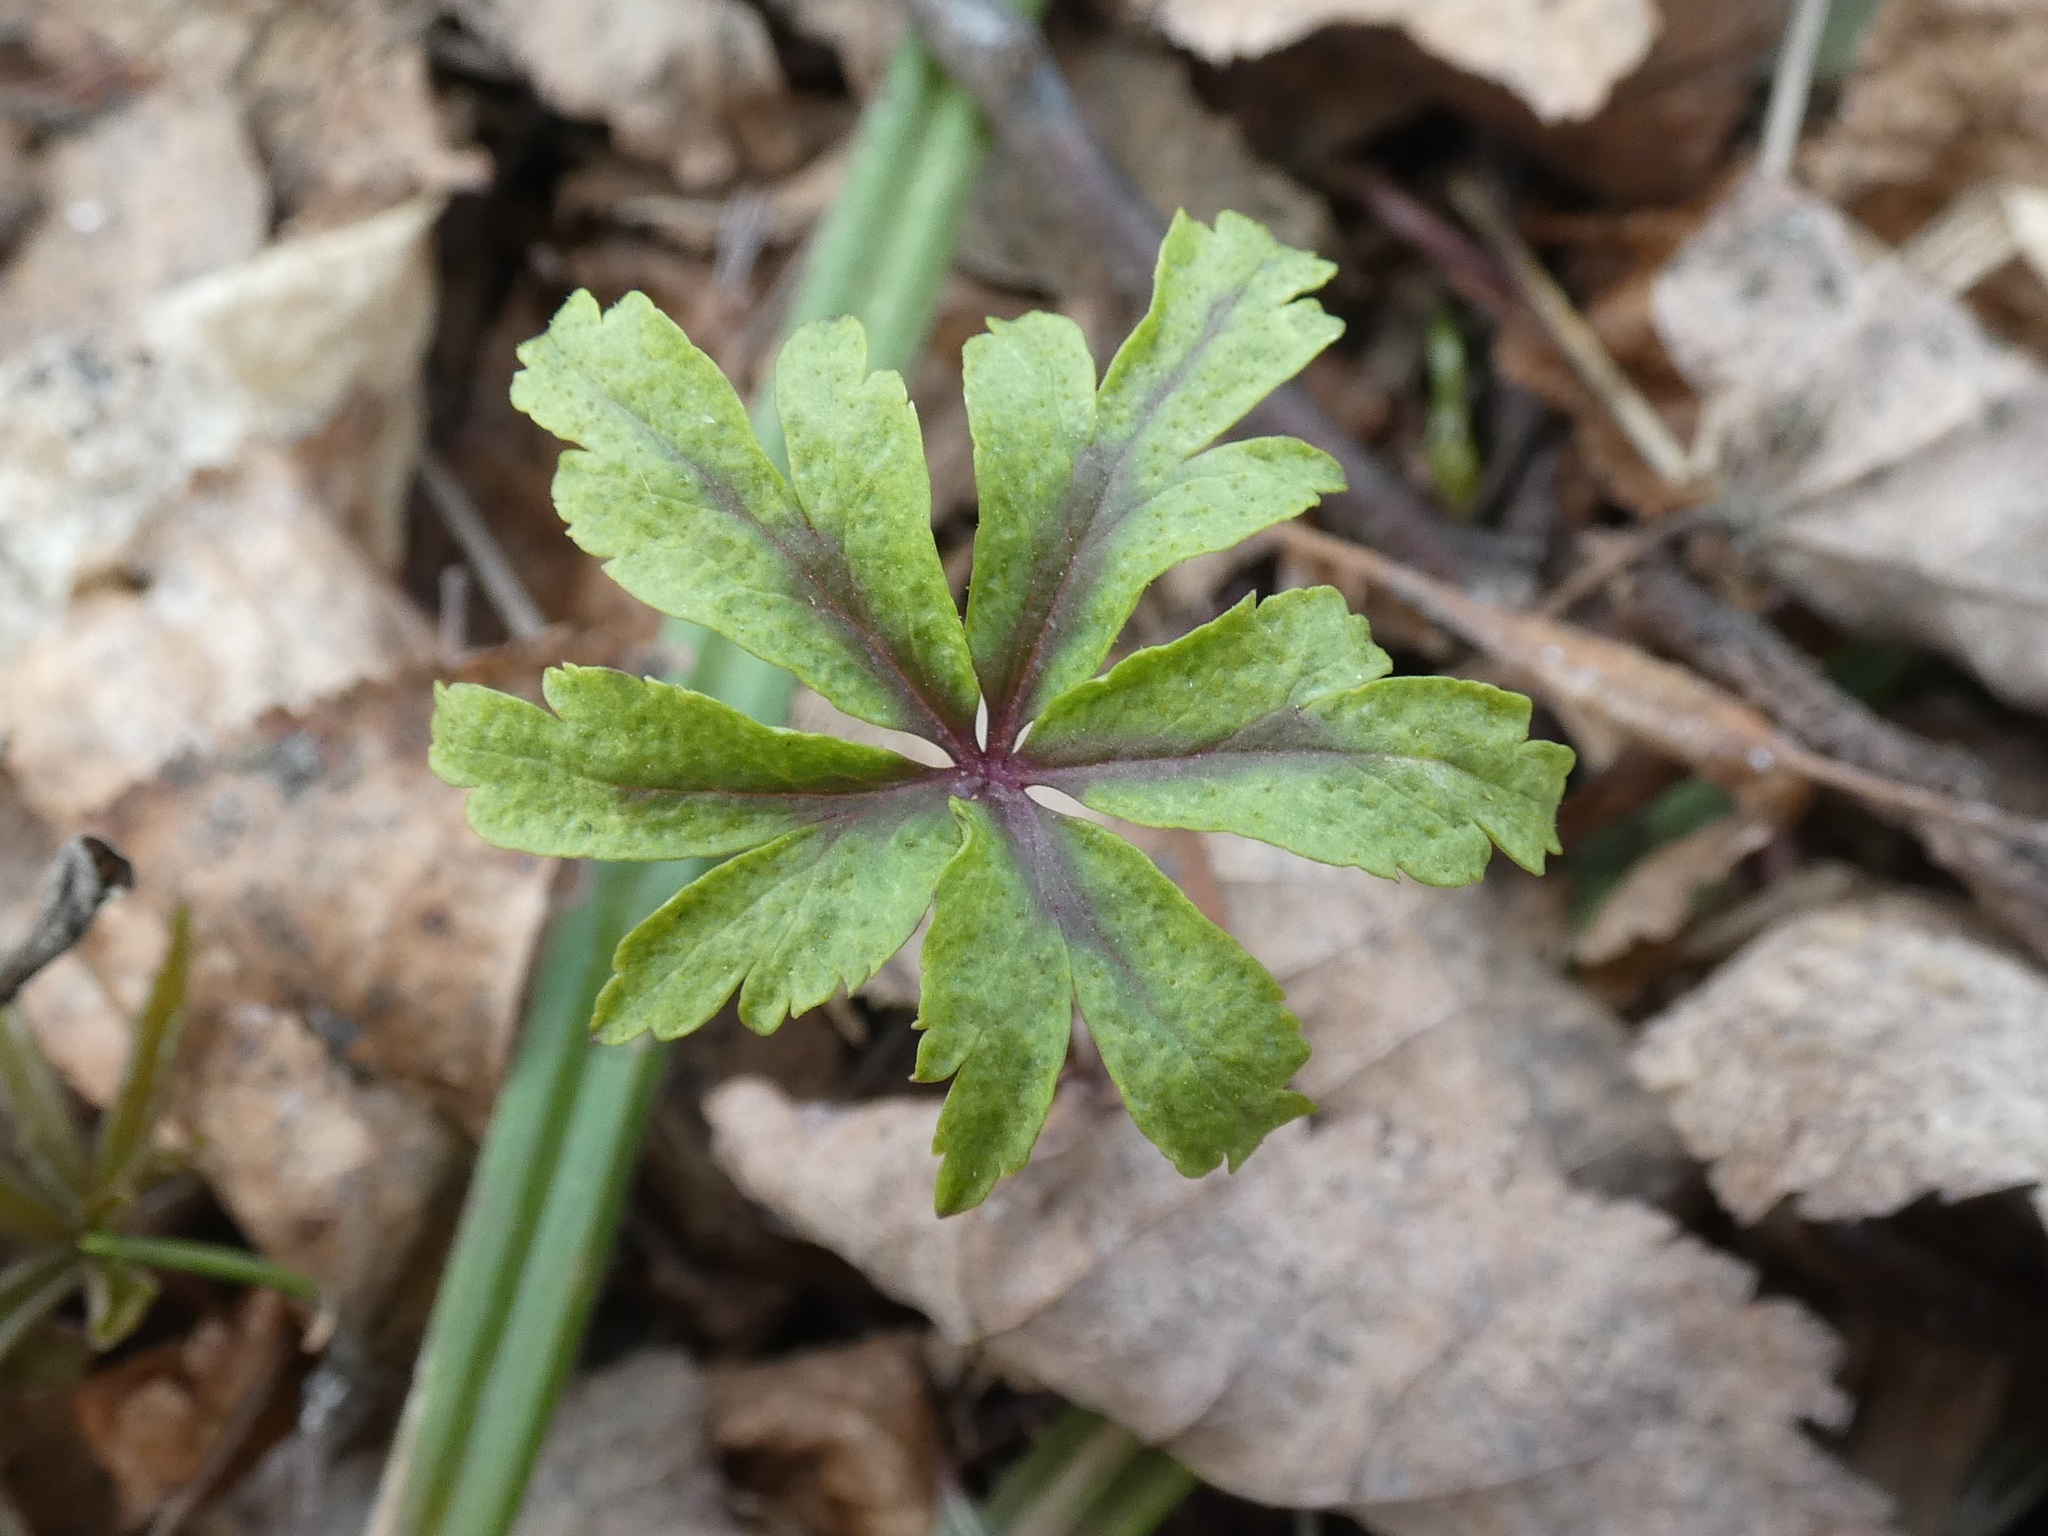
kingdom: Plantae
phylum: Tracheophyta
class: Magnoliopsida
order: Ranunculales
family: Ranunculaceae
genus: Anemone
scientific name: Anemone ranunculoides
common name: Yellow anemone
